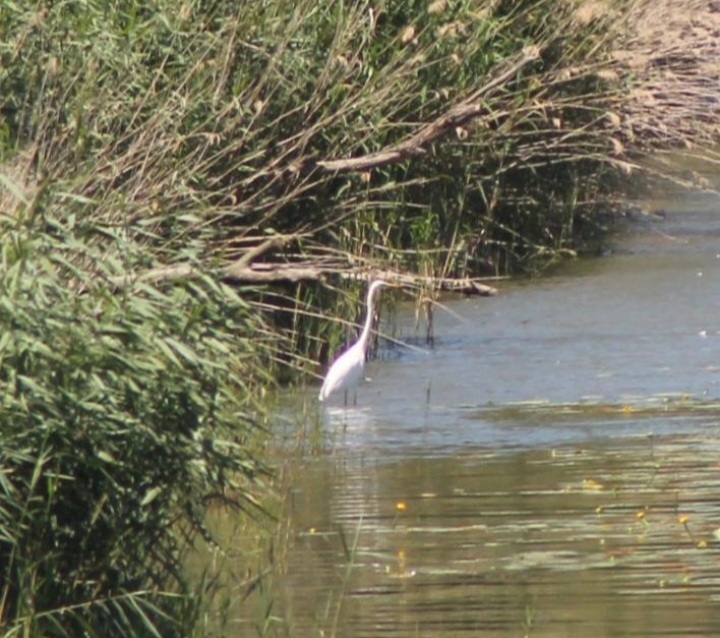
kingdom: Animalia
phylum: Chordata
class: Aves
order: Pelecaniformes
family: Ardeidae
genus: Ardea
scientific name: Ardea alba
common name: Great egret
